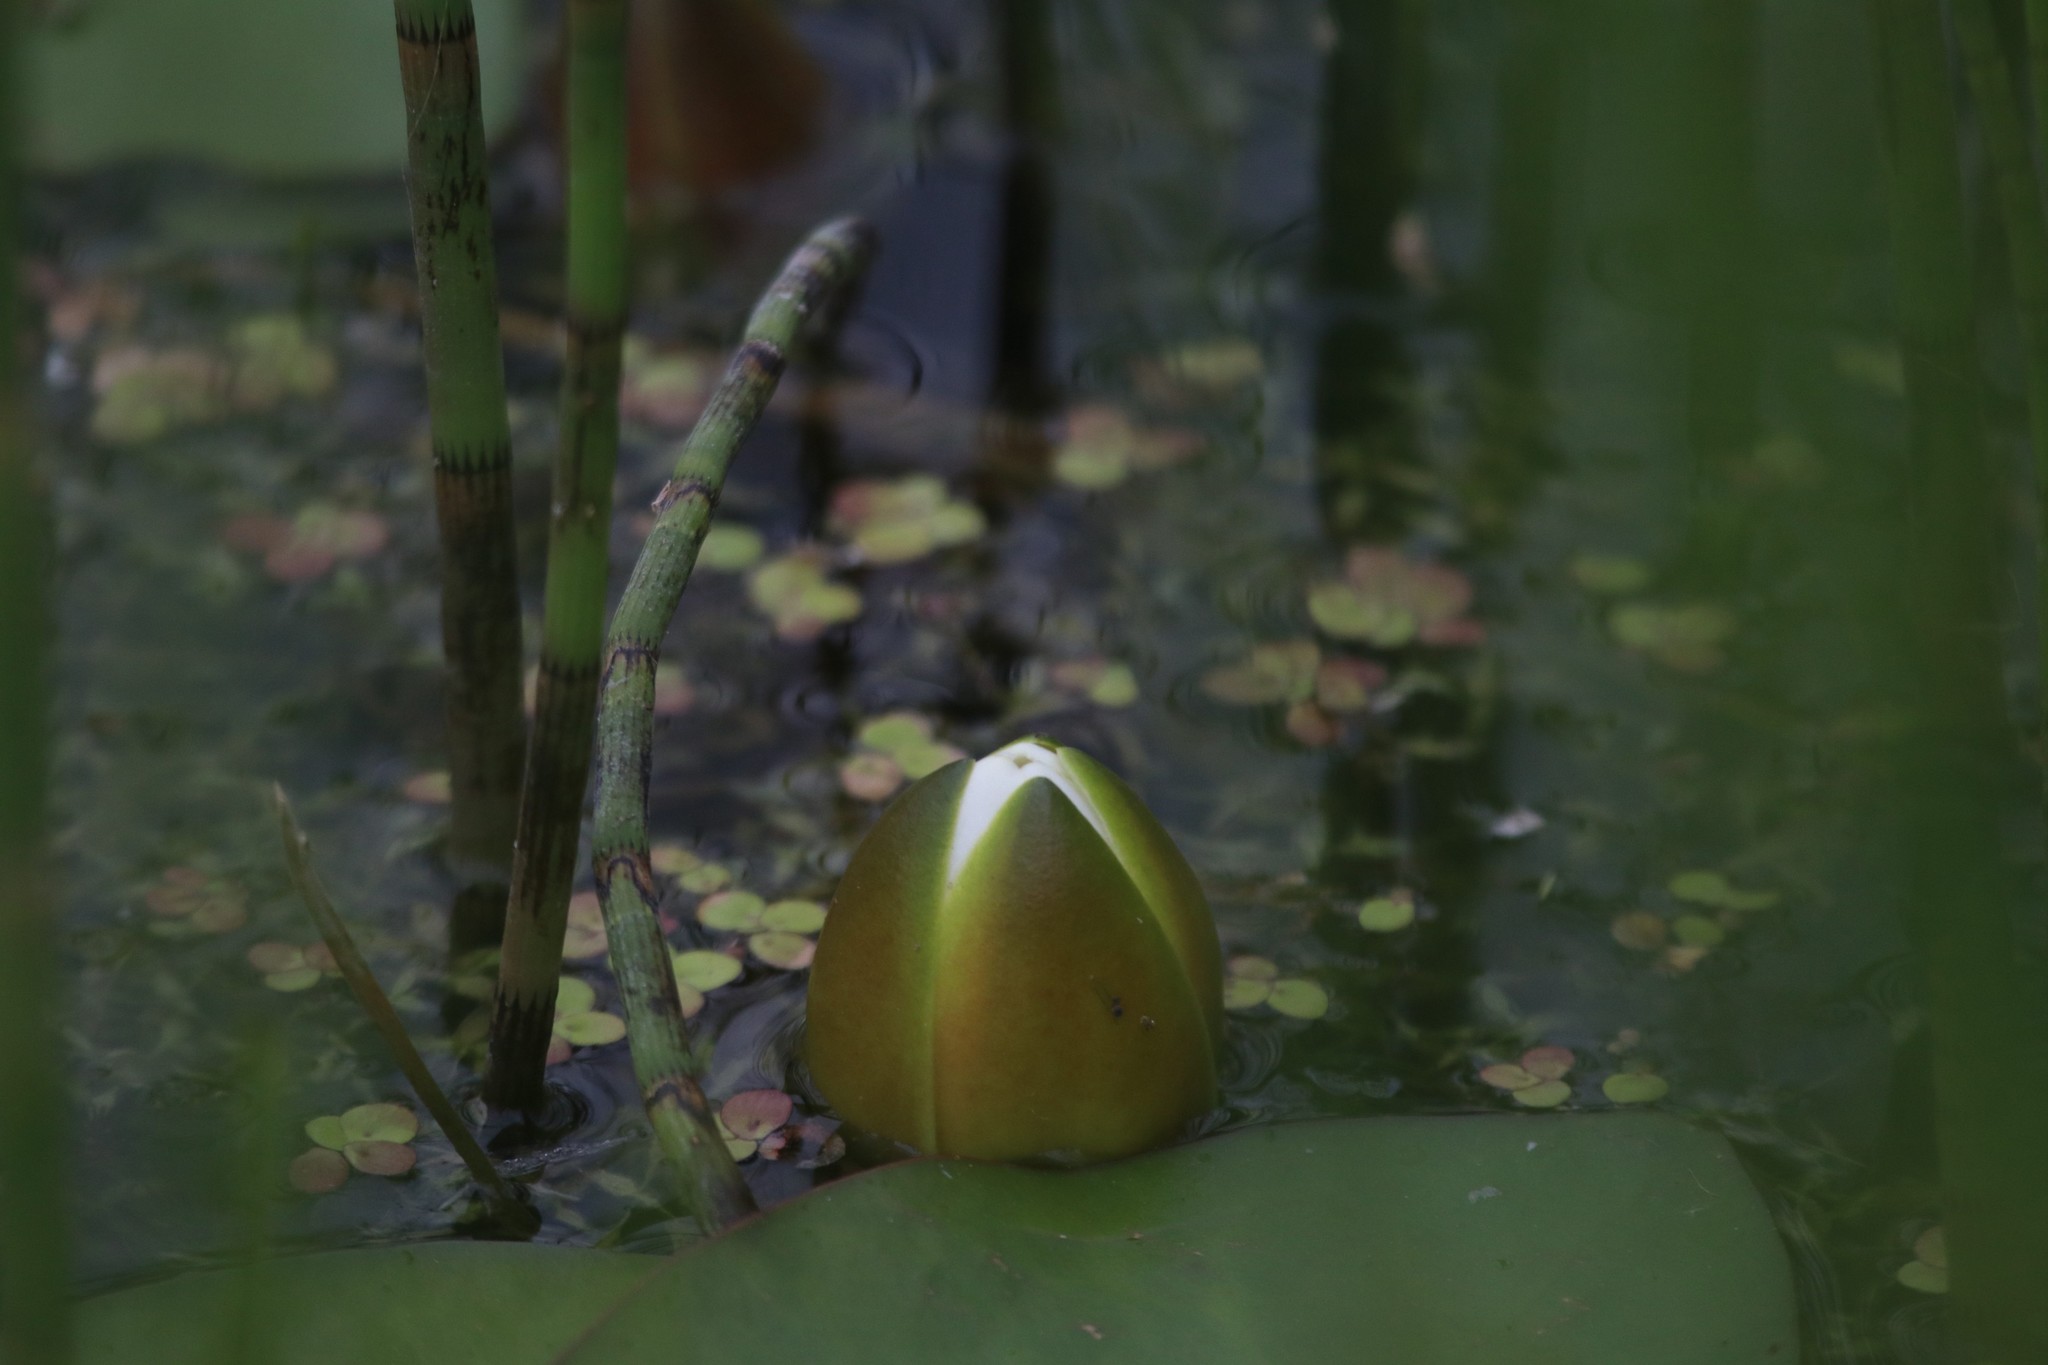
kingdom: Plantae
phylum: Tracheophyta
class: Magnoliopsida
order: Nymphaeales
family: Nymphaeaceae
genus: Nymphaea
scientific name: Nymphaea candida
